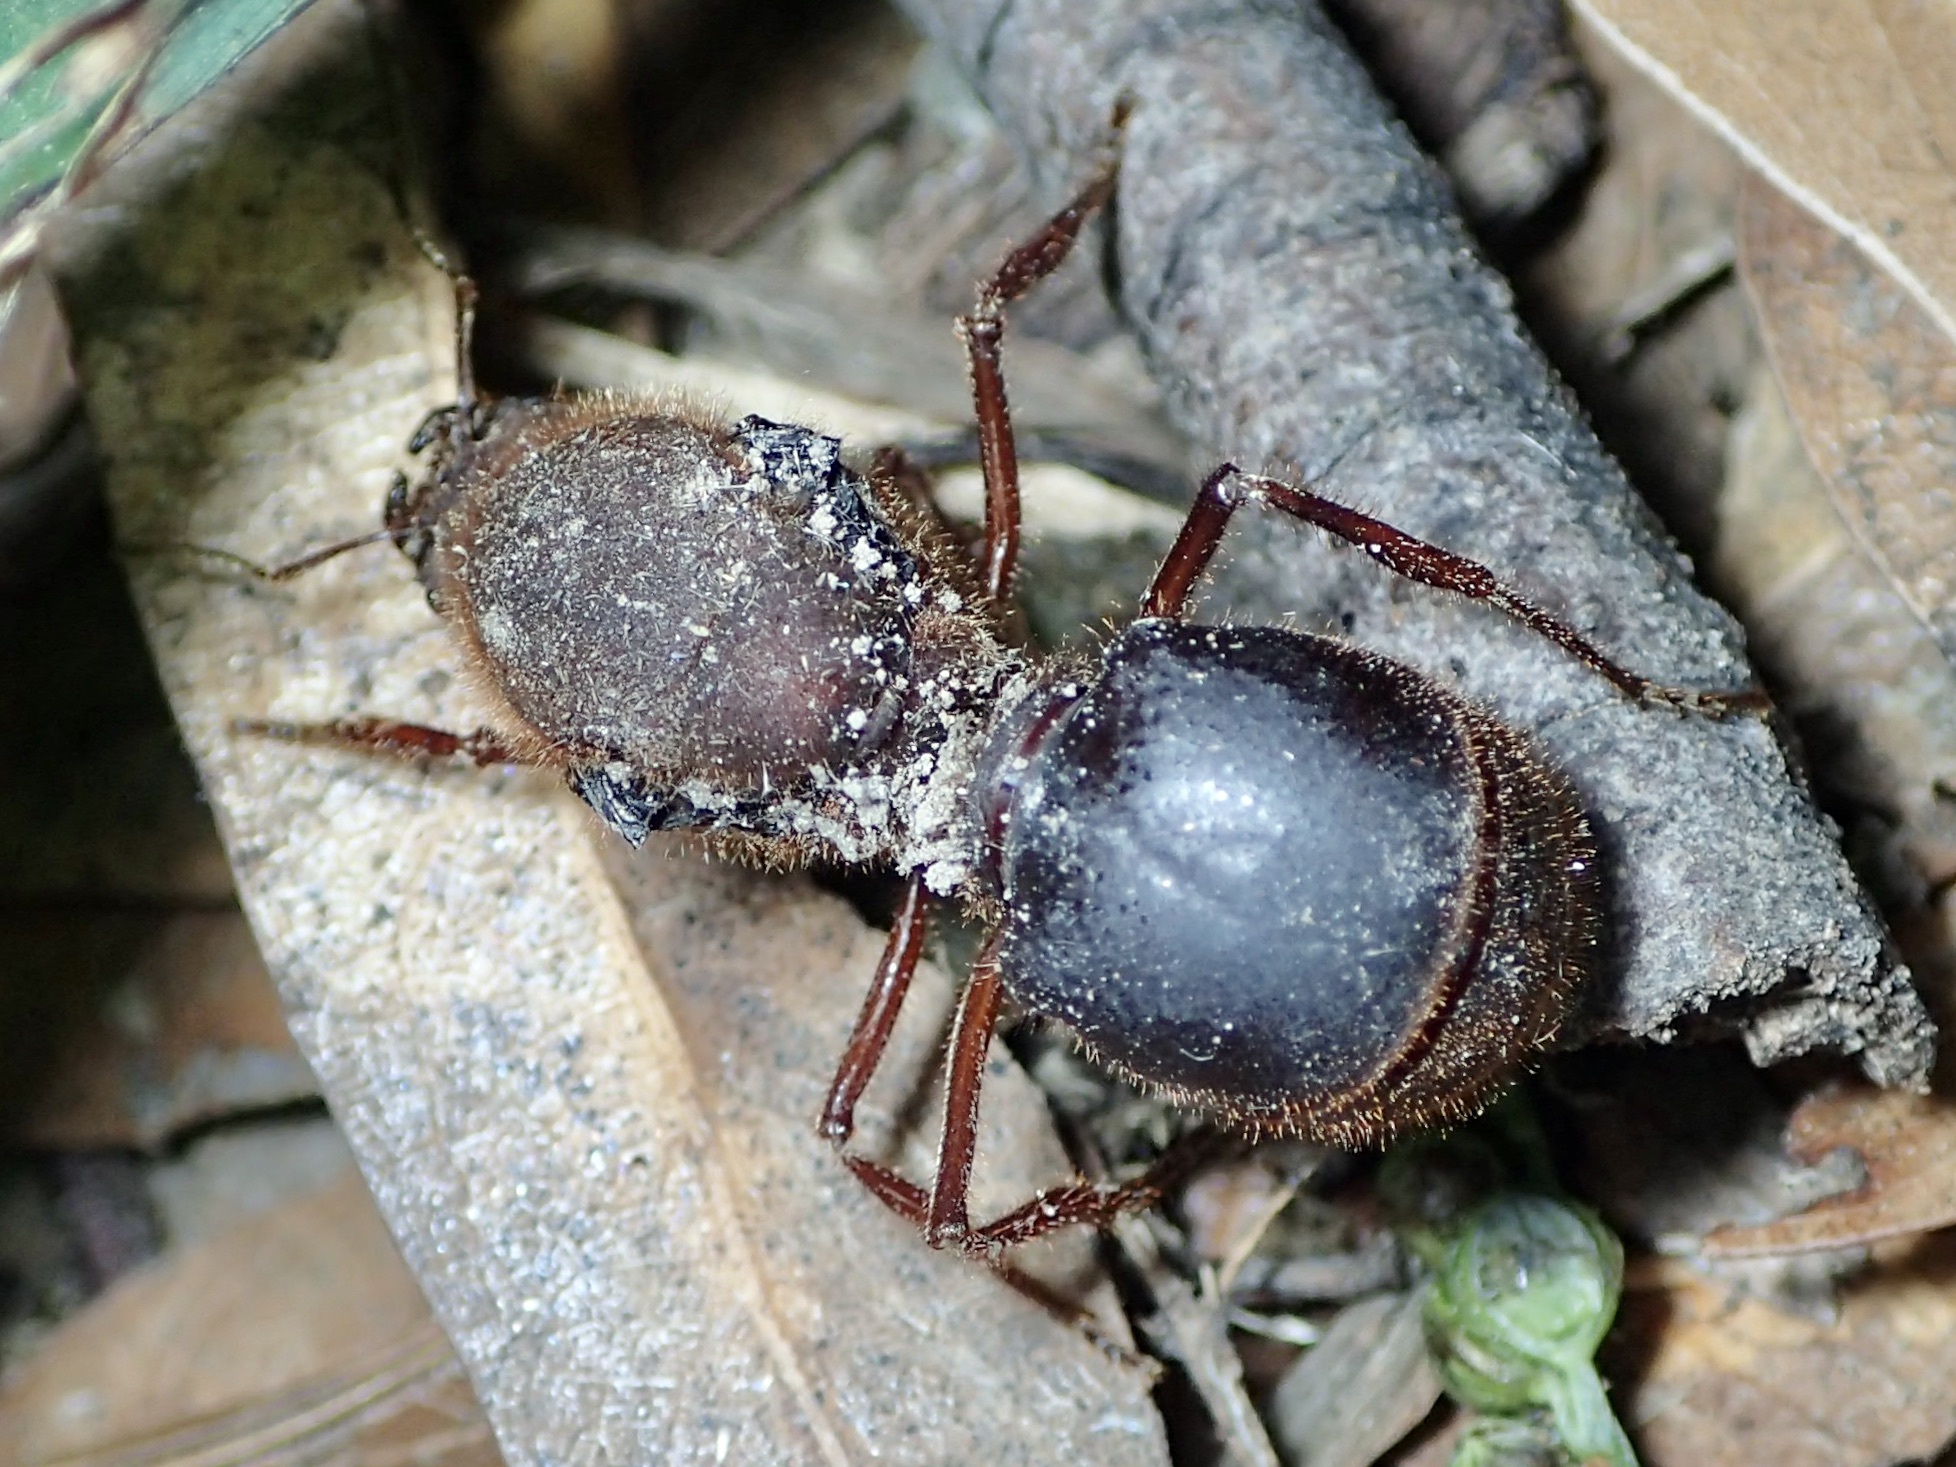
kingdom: Animalia
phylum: Arthropoda
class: Insecta
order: Hymenoptera
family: Formicidae
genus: Atta
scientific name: Atta mexicana
